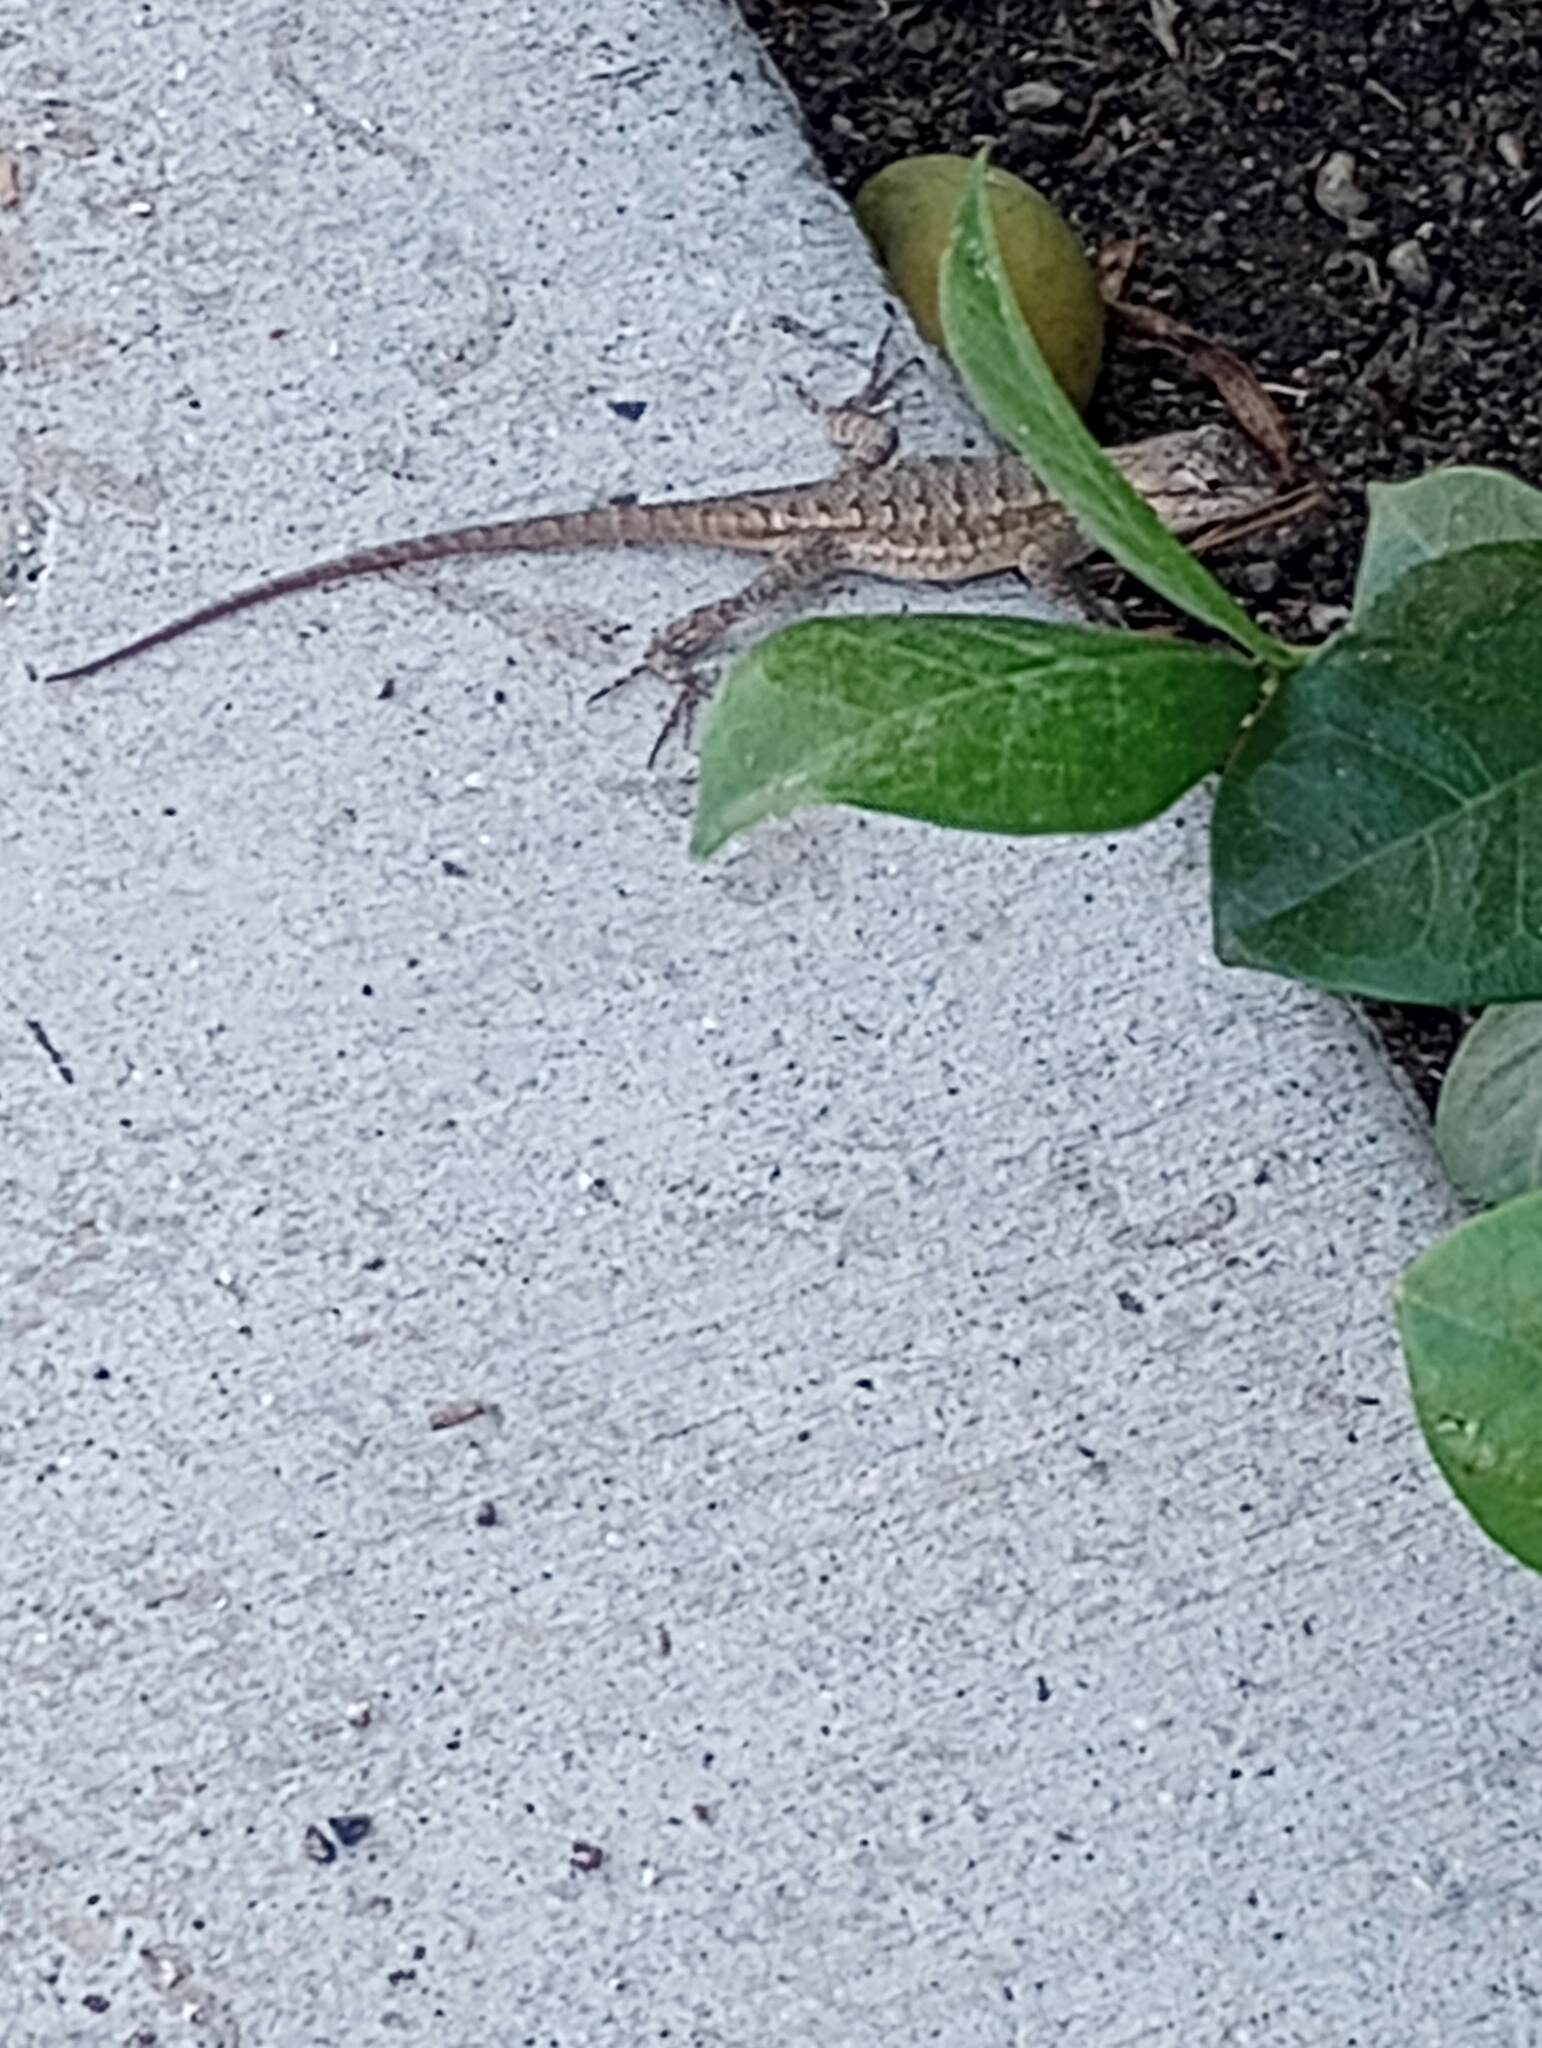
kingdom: Animalia
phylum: Chordata
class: Squamata
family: Phrynosomatidae
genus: Sceloporus
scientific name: Sceloporus occidentalis
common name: Western fence lizard
